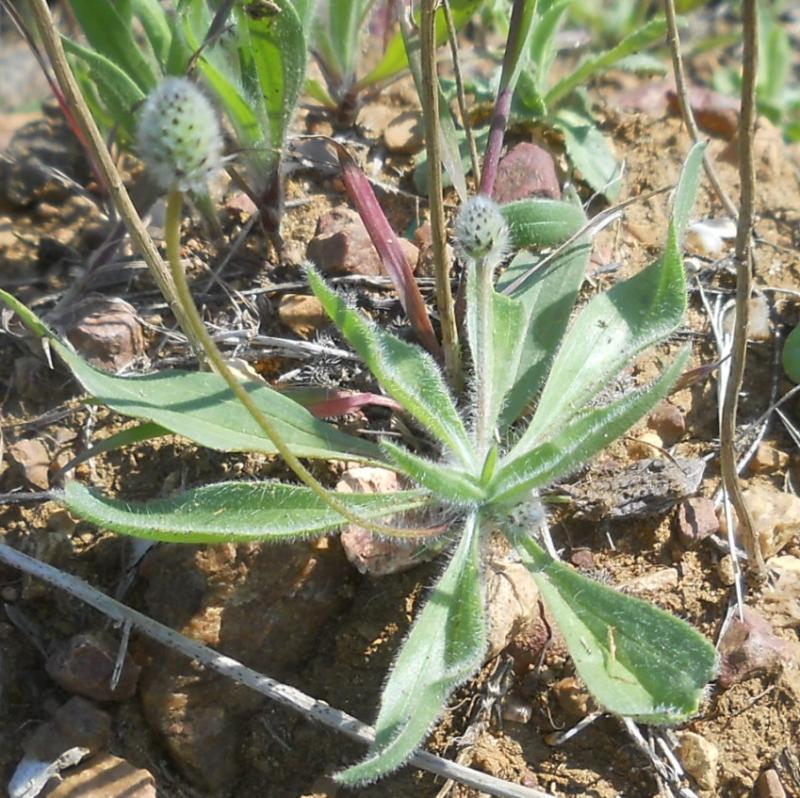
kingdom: Plantae
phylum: Tracheophyta
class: Magnoliopsida
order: Lamiales
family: Plantaginaceae
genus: Plantago
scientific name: Plantago lagopus
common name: Hare-foot plantain
